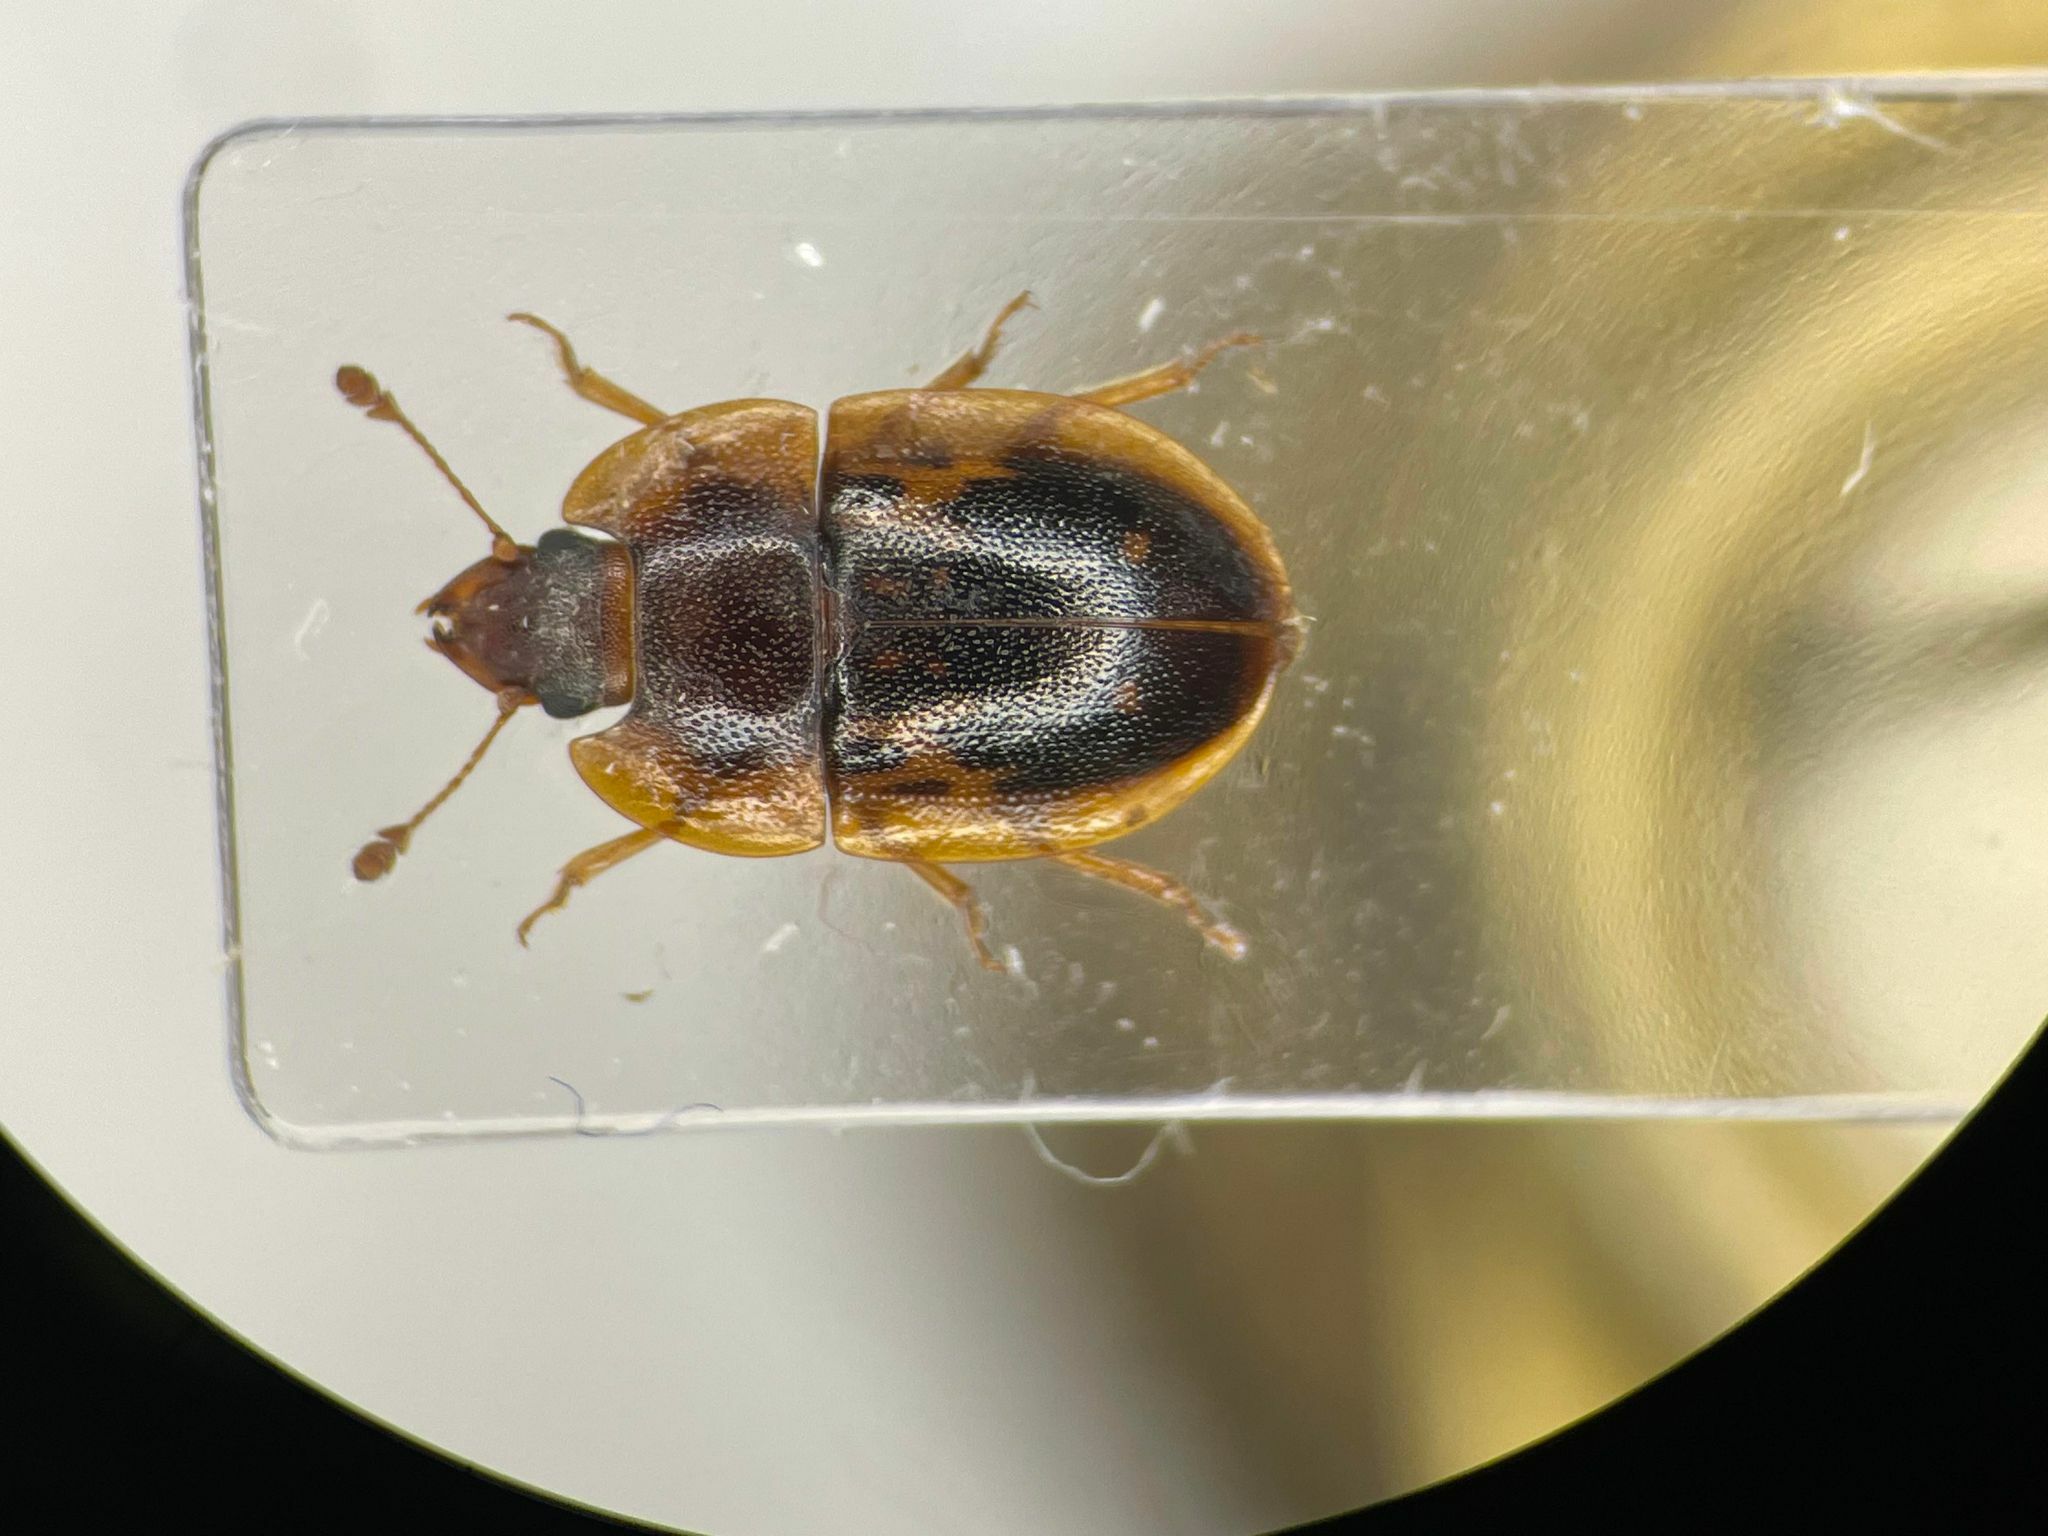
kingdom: Animalia
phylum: Arthropoda
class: Insecta
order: Coleoptera
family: Nitidulidae
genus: Prometopia
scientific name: Prometopia sexmaculata
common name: Six-spotted sap-feeding beetle
